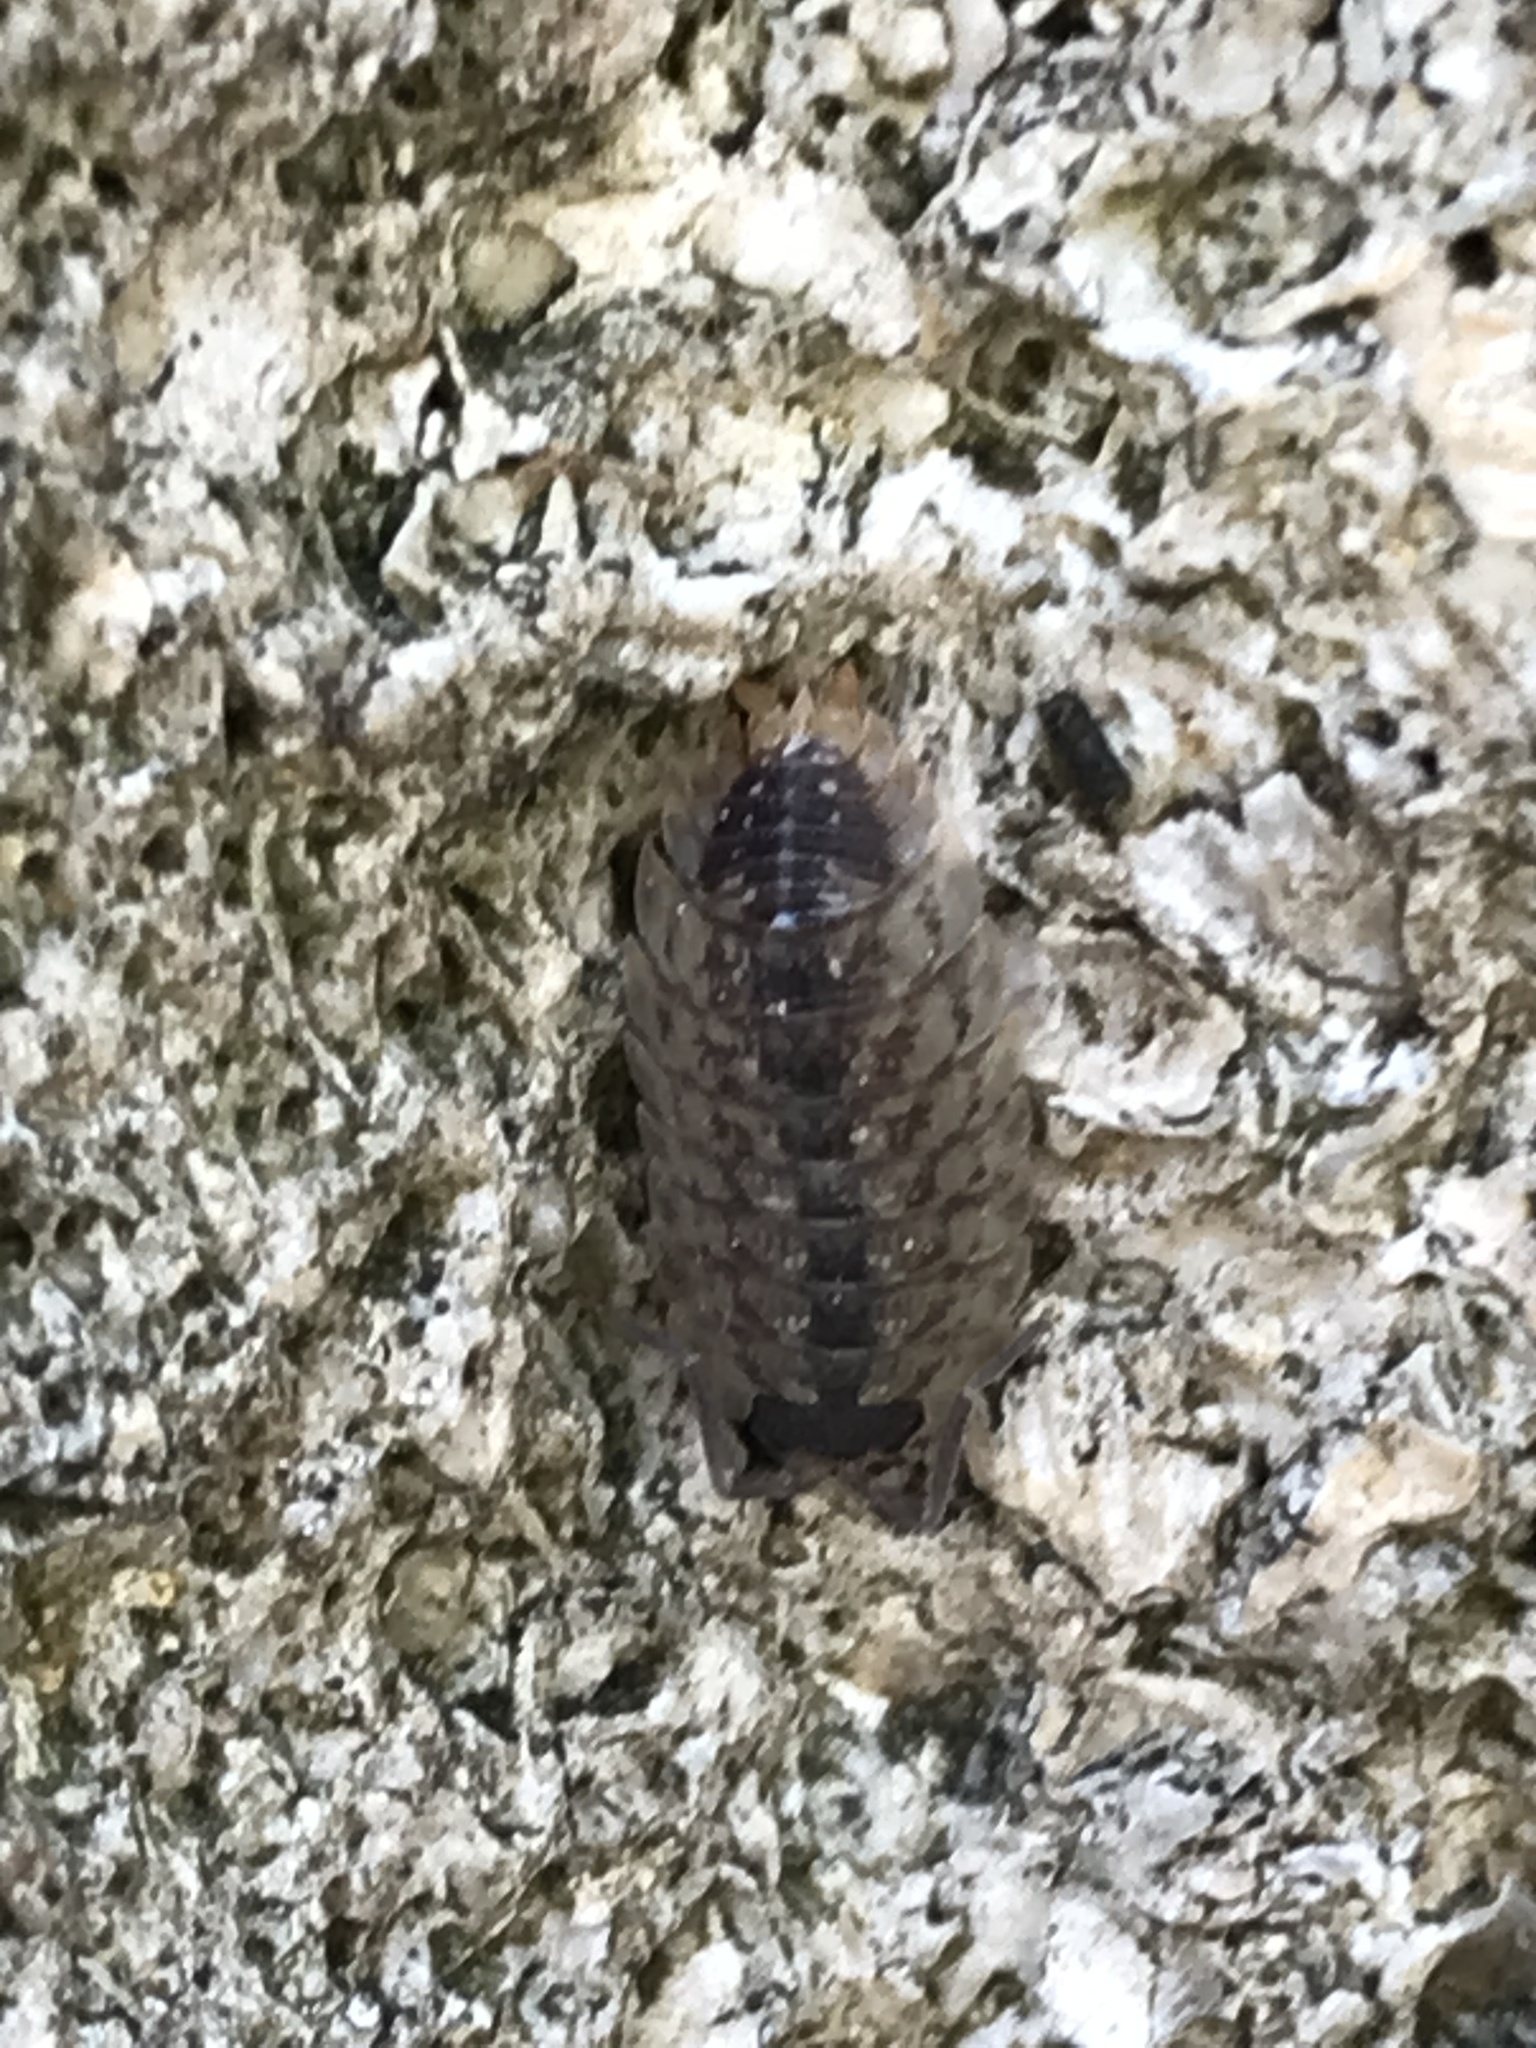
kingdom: Animalia
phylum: Arthropoda
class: Malacostraca
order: Isopoda
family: Porcellionidae
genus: Porcellio
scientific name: Porcellio spinicornis
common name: Painted woodlouse
